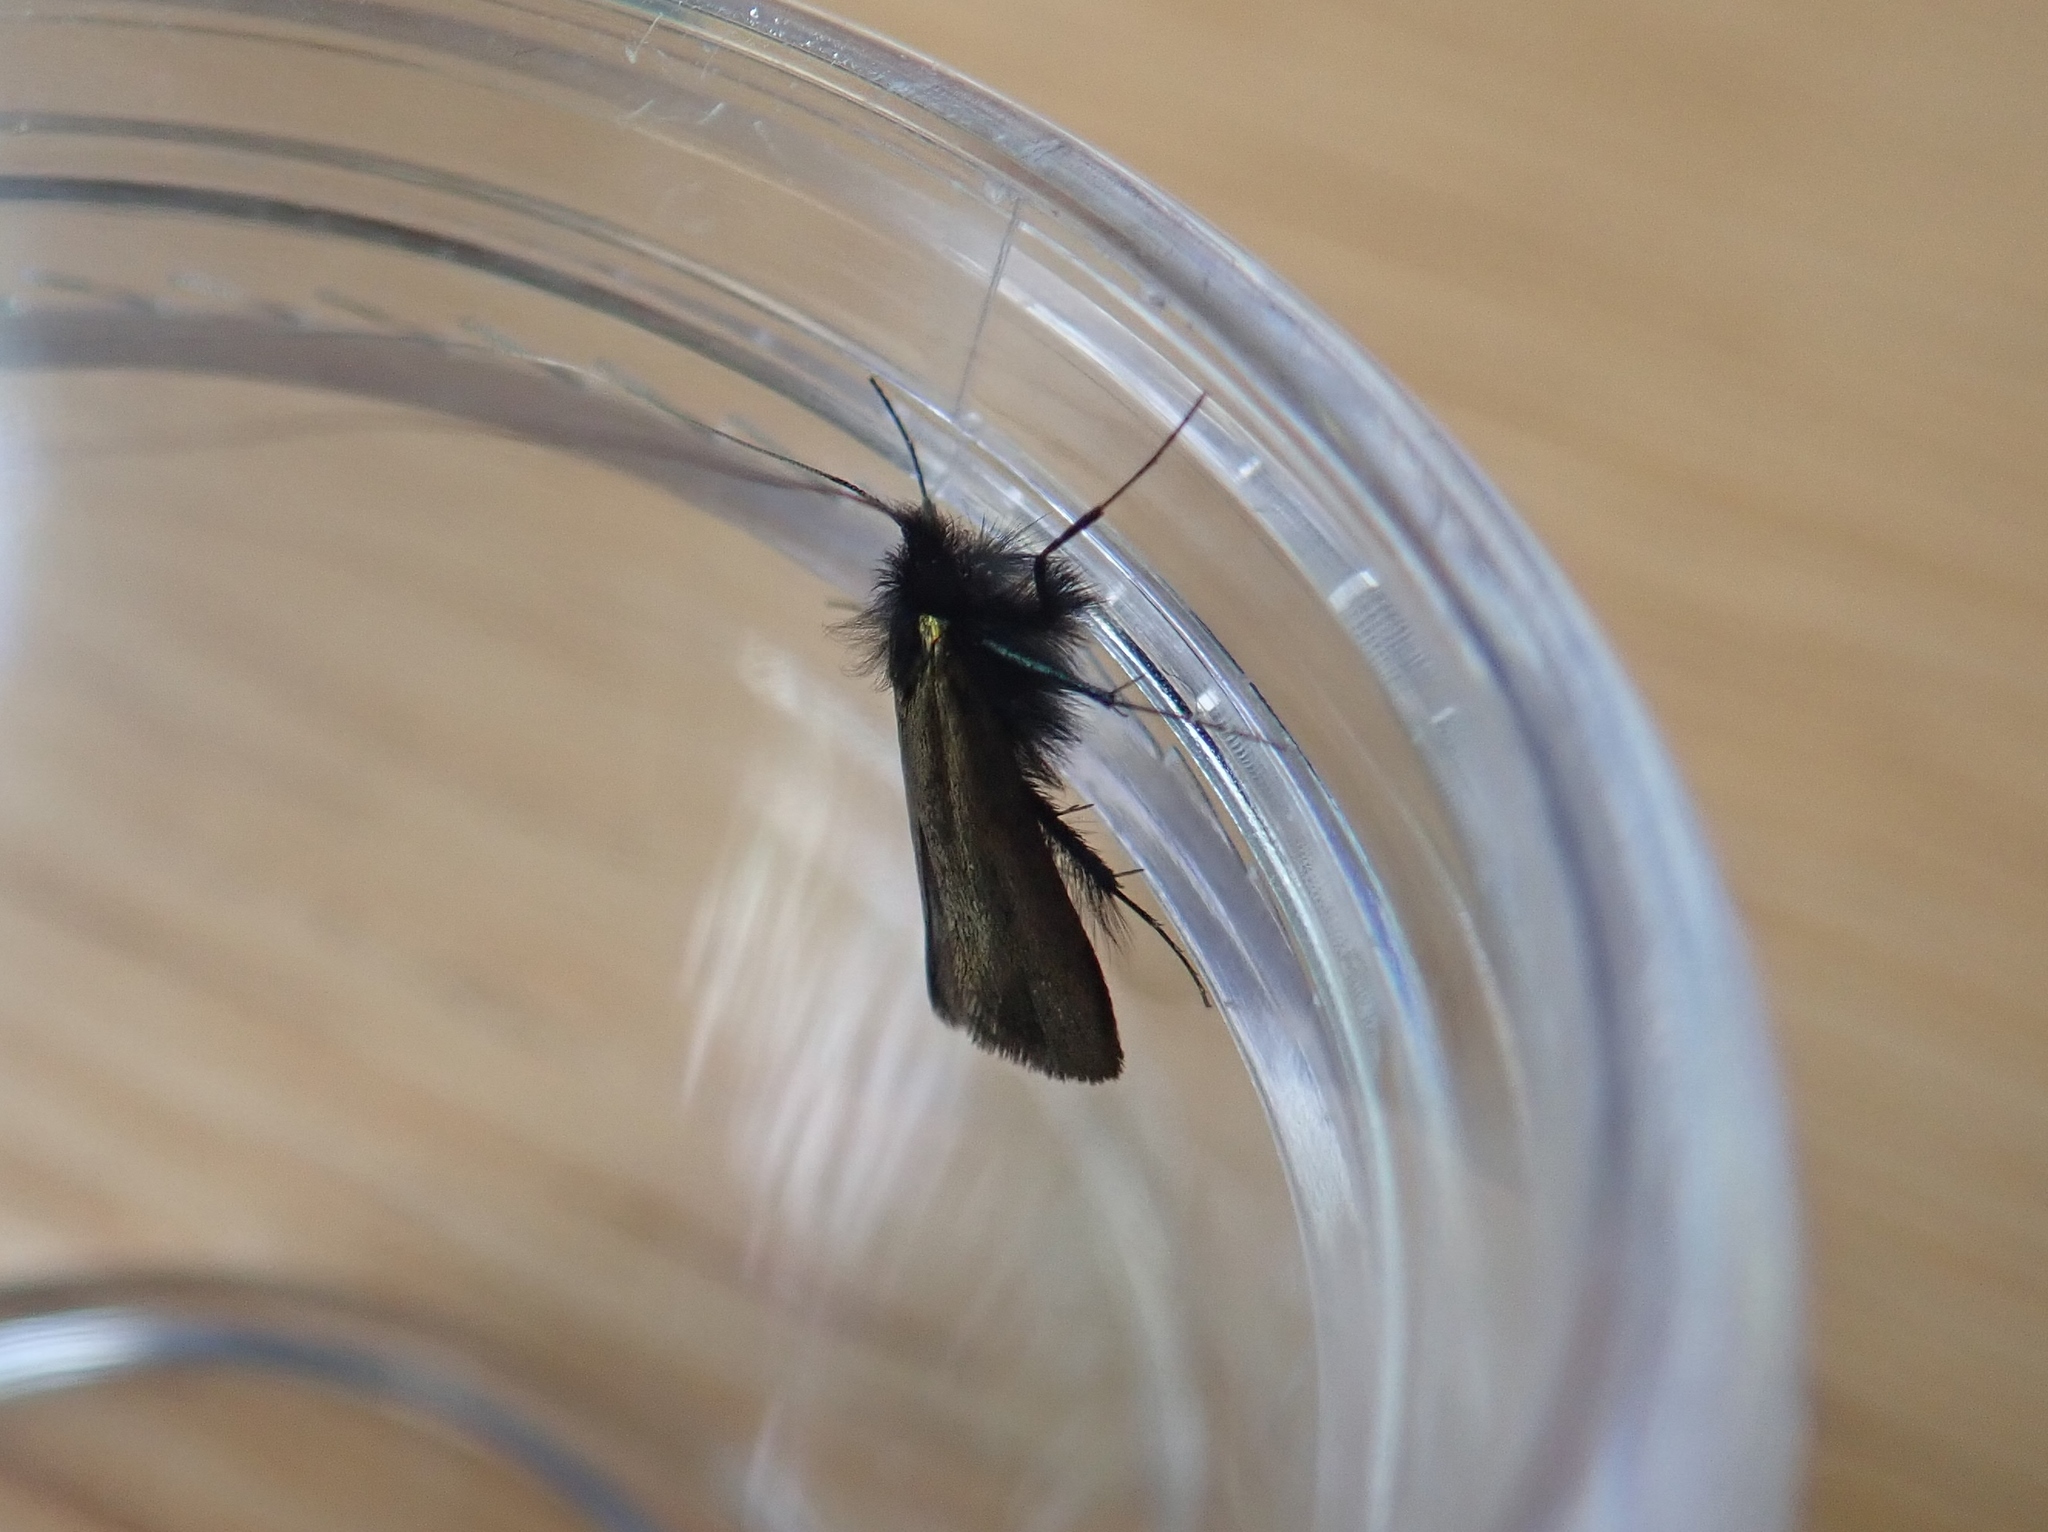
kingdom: Animalia
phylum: Arthropoda
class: Insecta
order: Lepidoptera
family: Adelidae
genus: Adela
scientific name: Adela viridella
